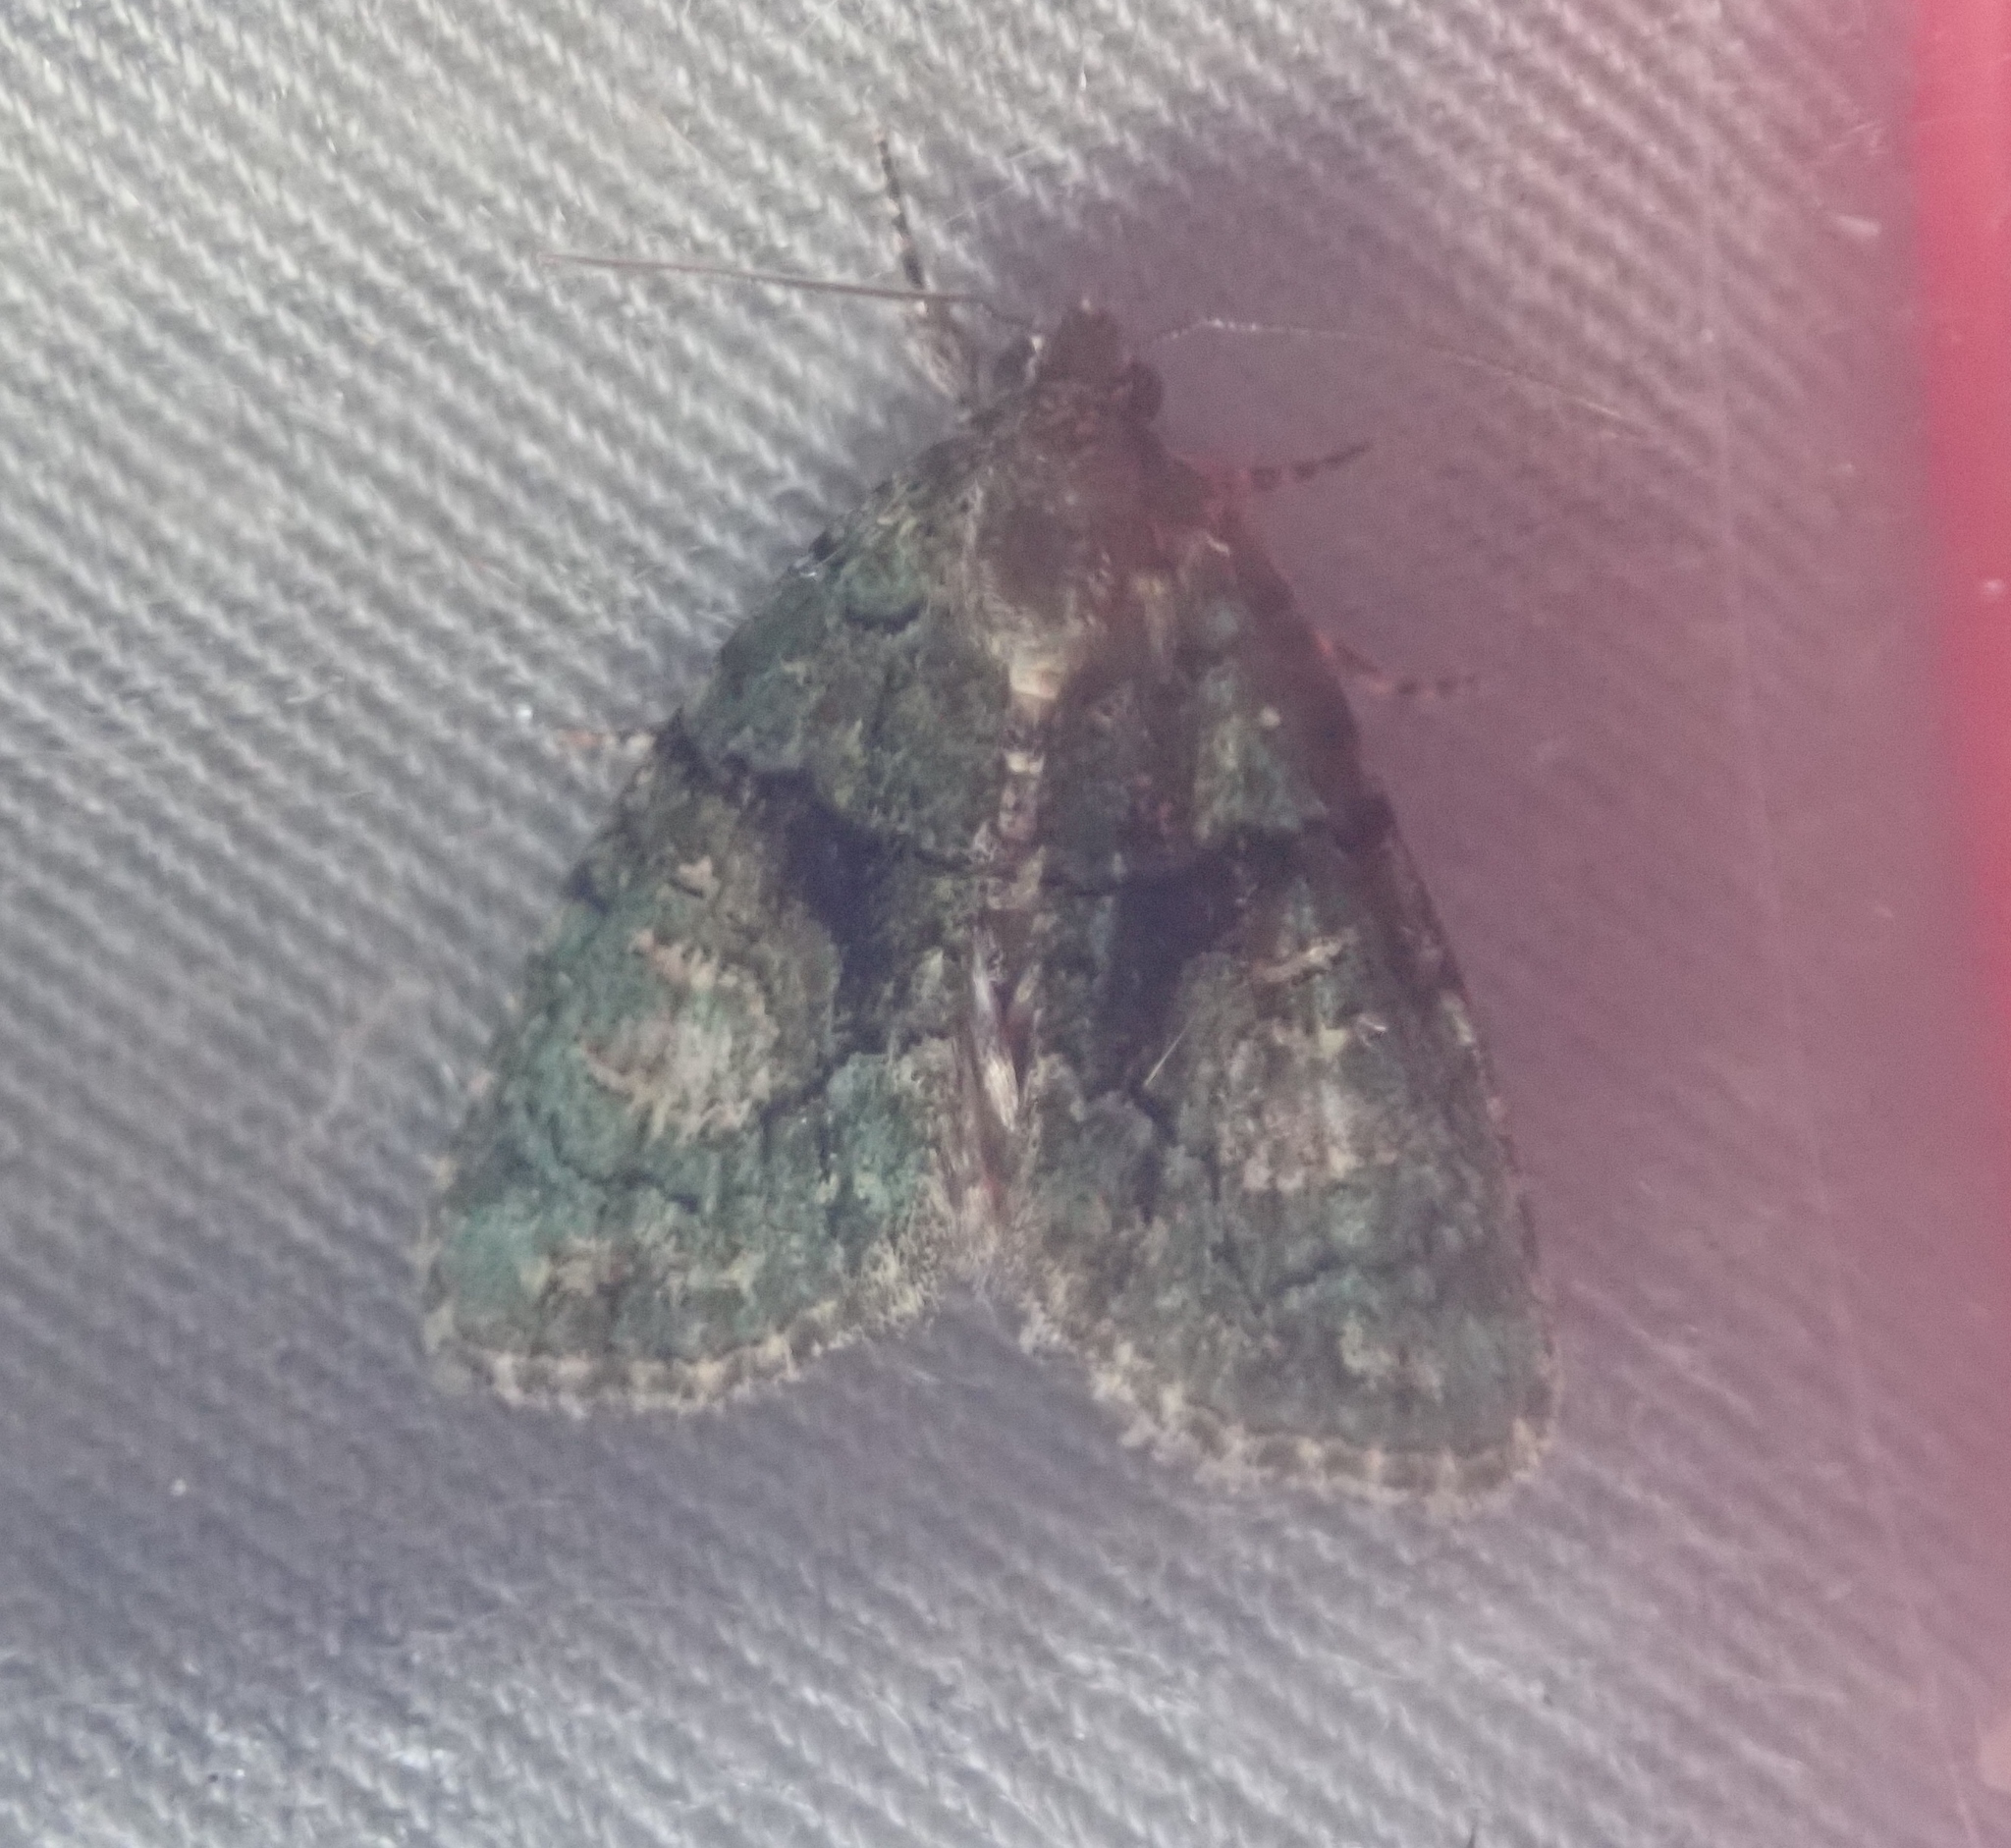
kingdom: Animalia
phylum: Arthropoda
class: Insecta
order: Lepidoptera
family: Noctuidae
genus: Cryphia
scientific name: Cryphia algae
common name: Tree-lichen beauty
